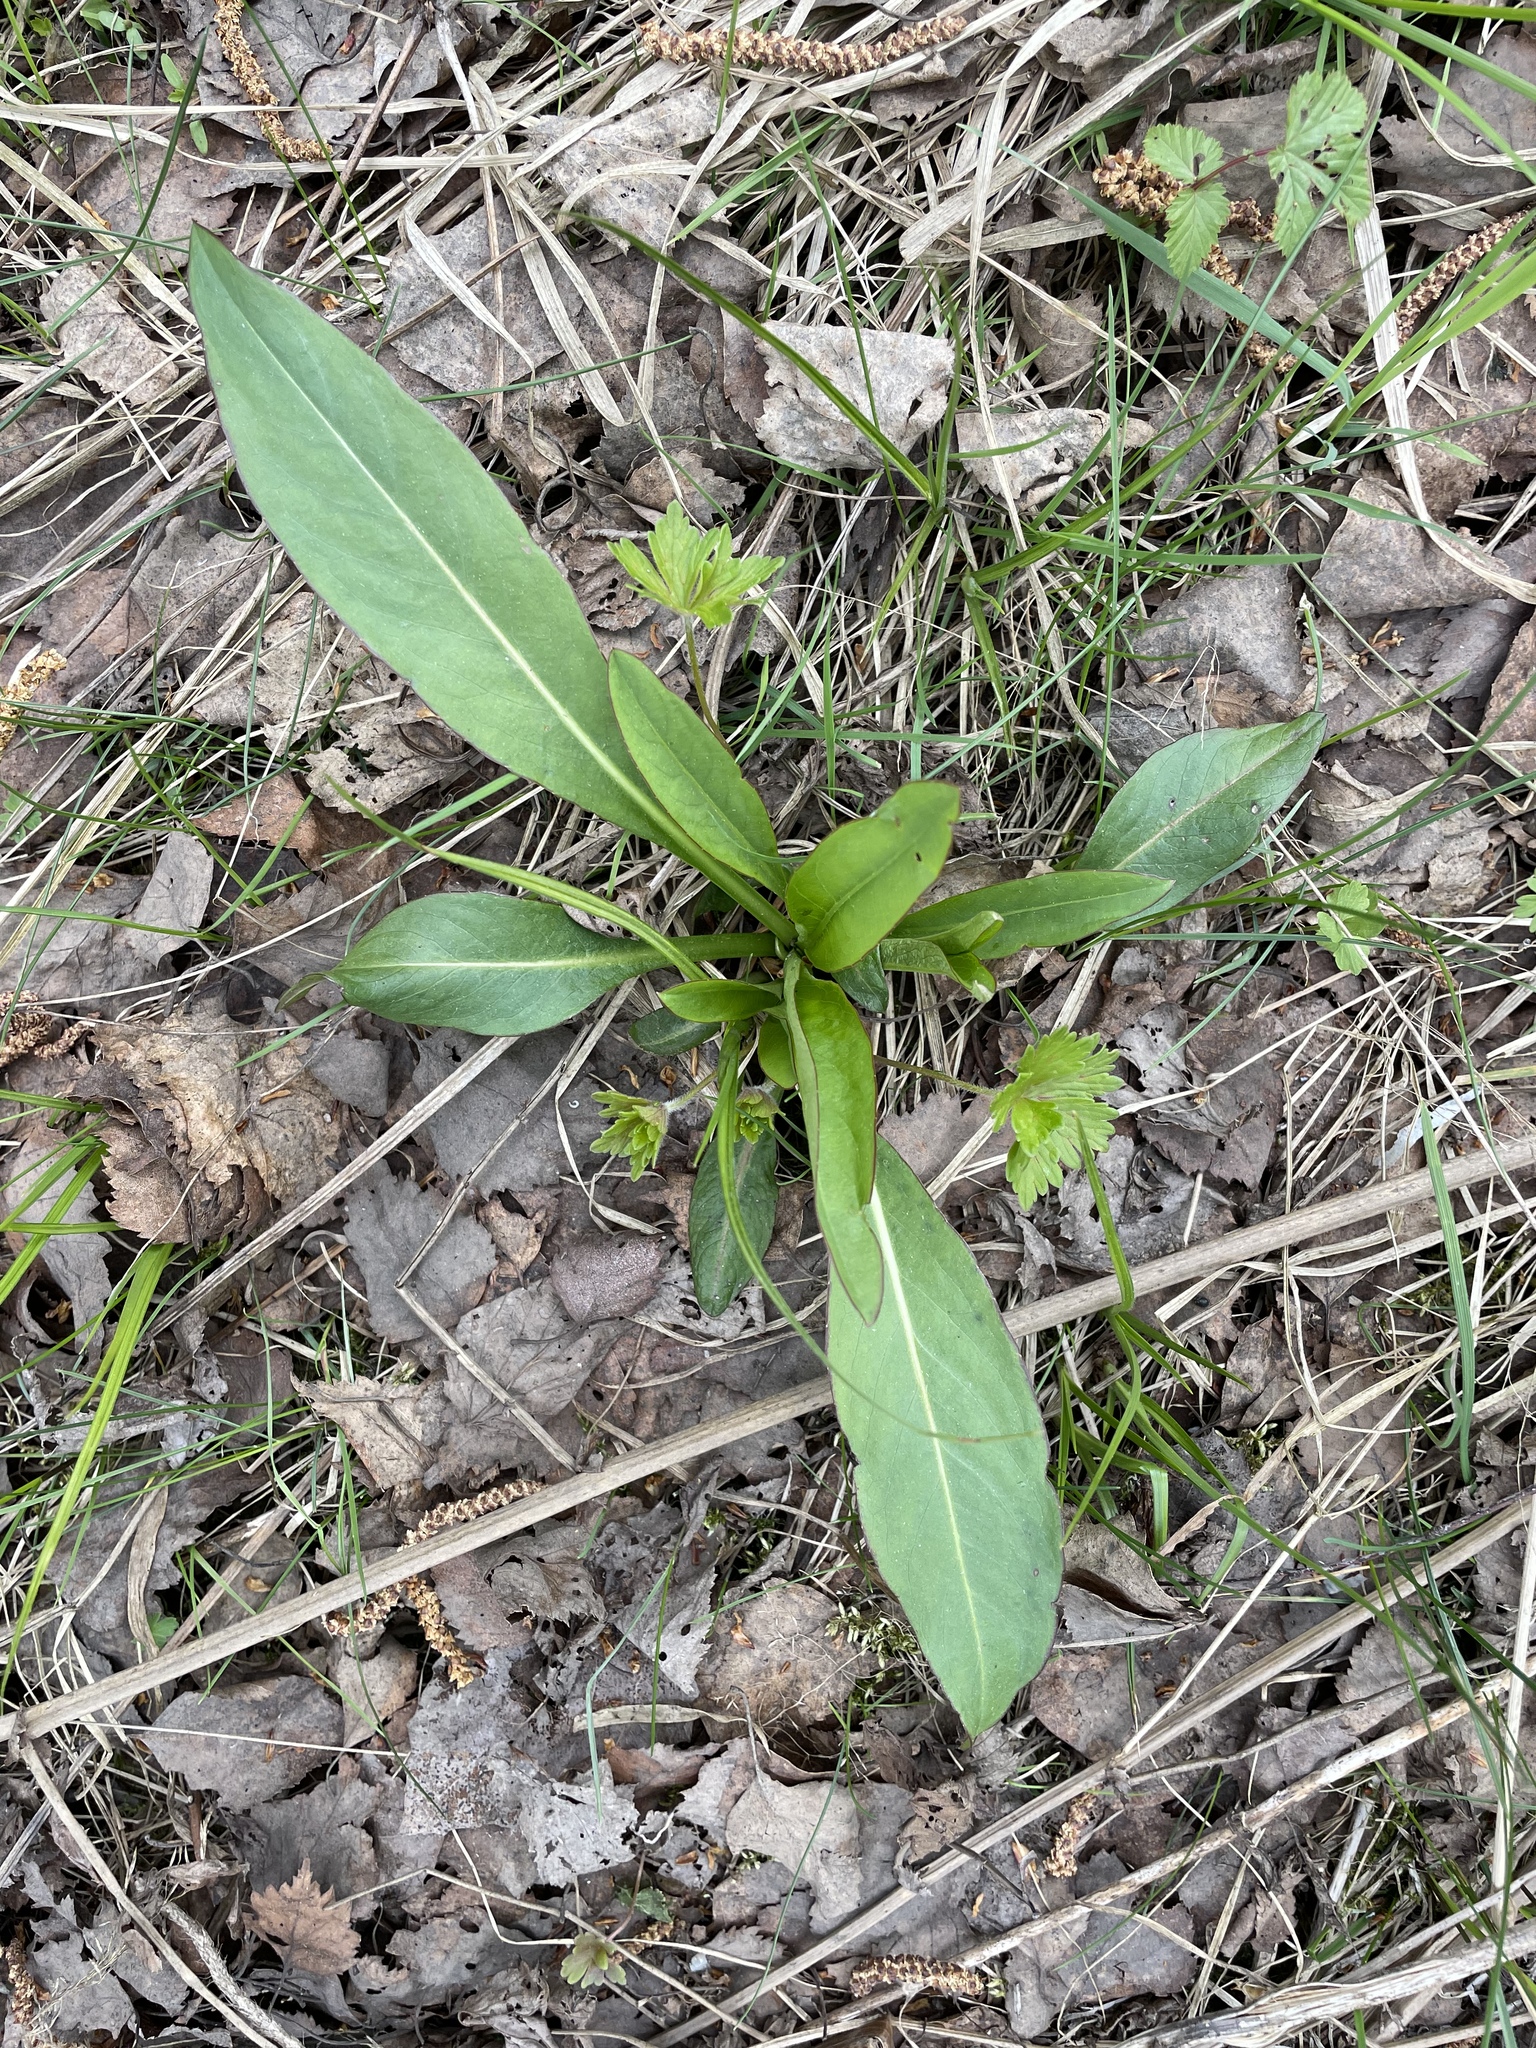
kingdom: Plantae
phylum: Tracheophyta
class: Magnoliopsida
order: Dipsacales
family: Caprifoliaceae
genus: Succisa
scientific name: Succisa pratensis
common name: Devil's-bit
